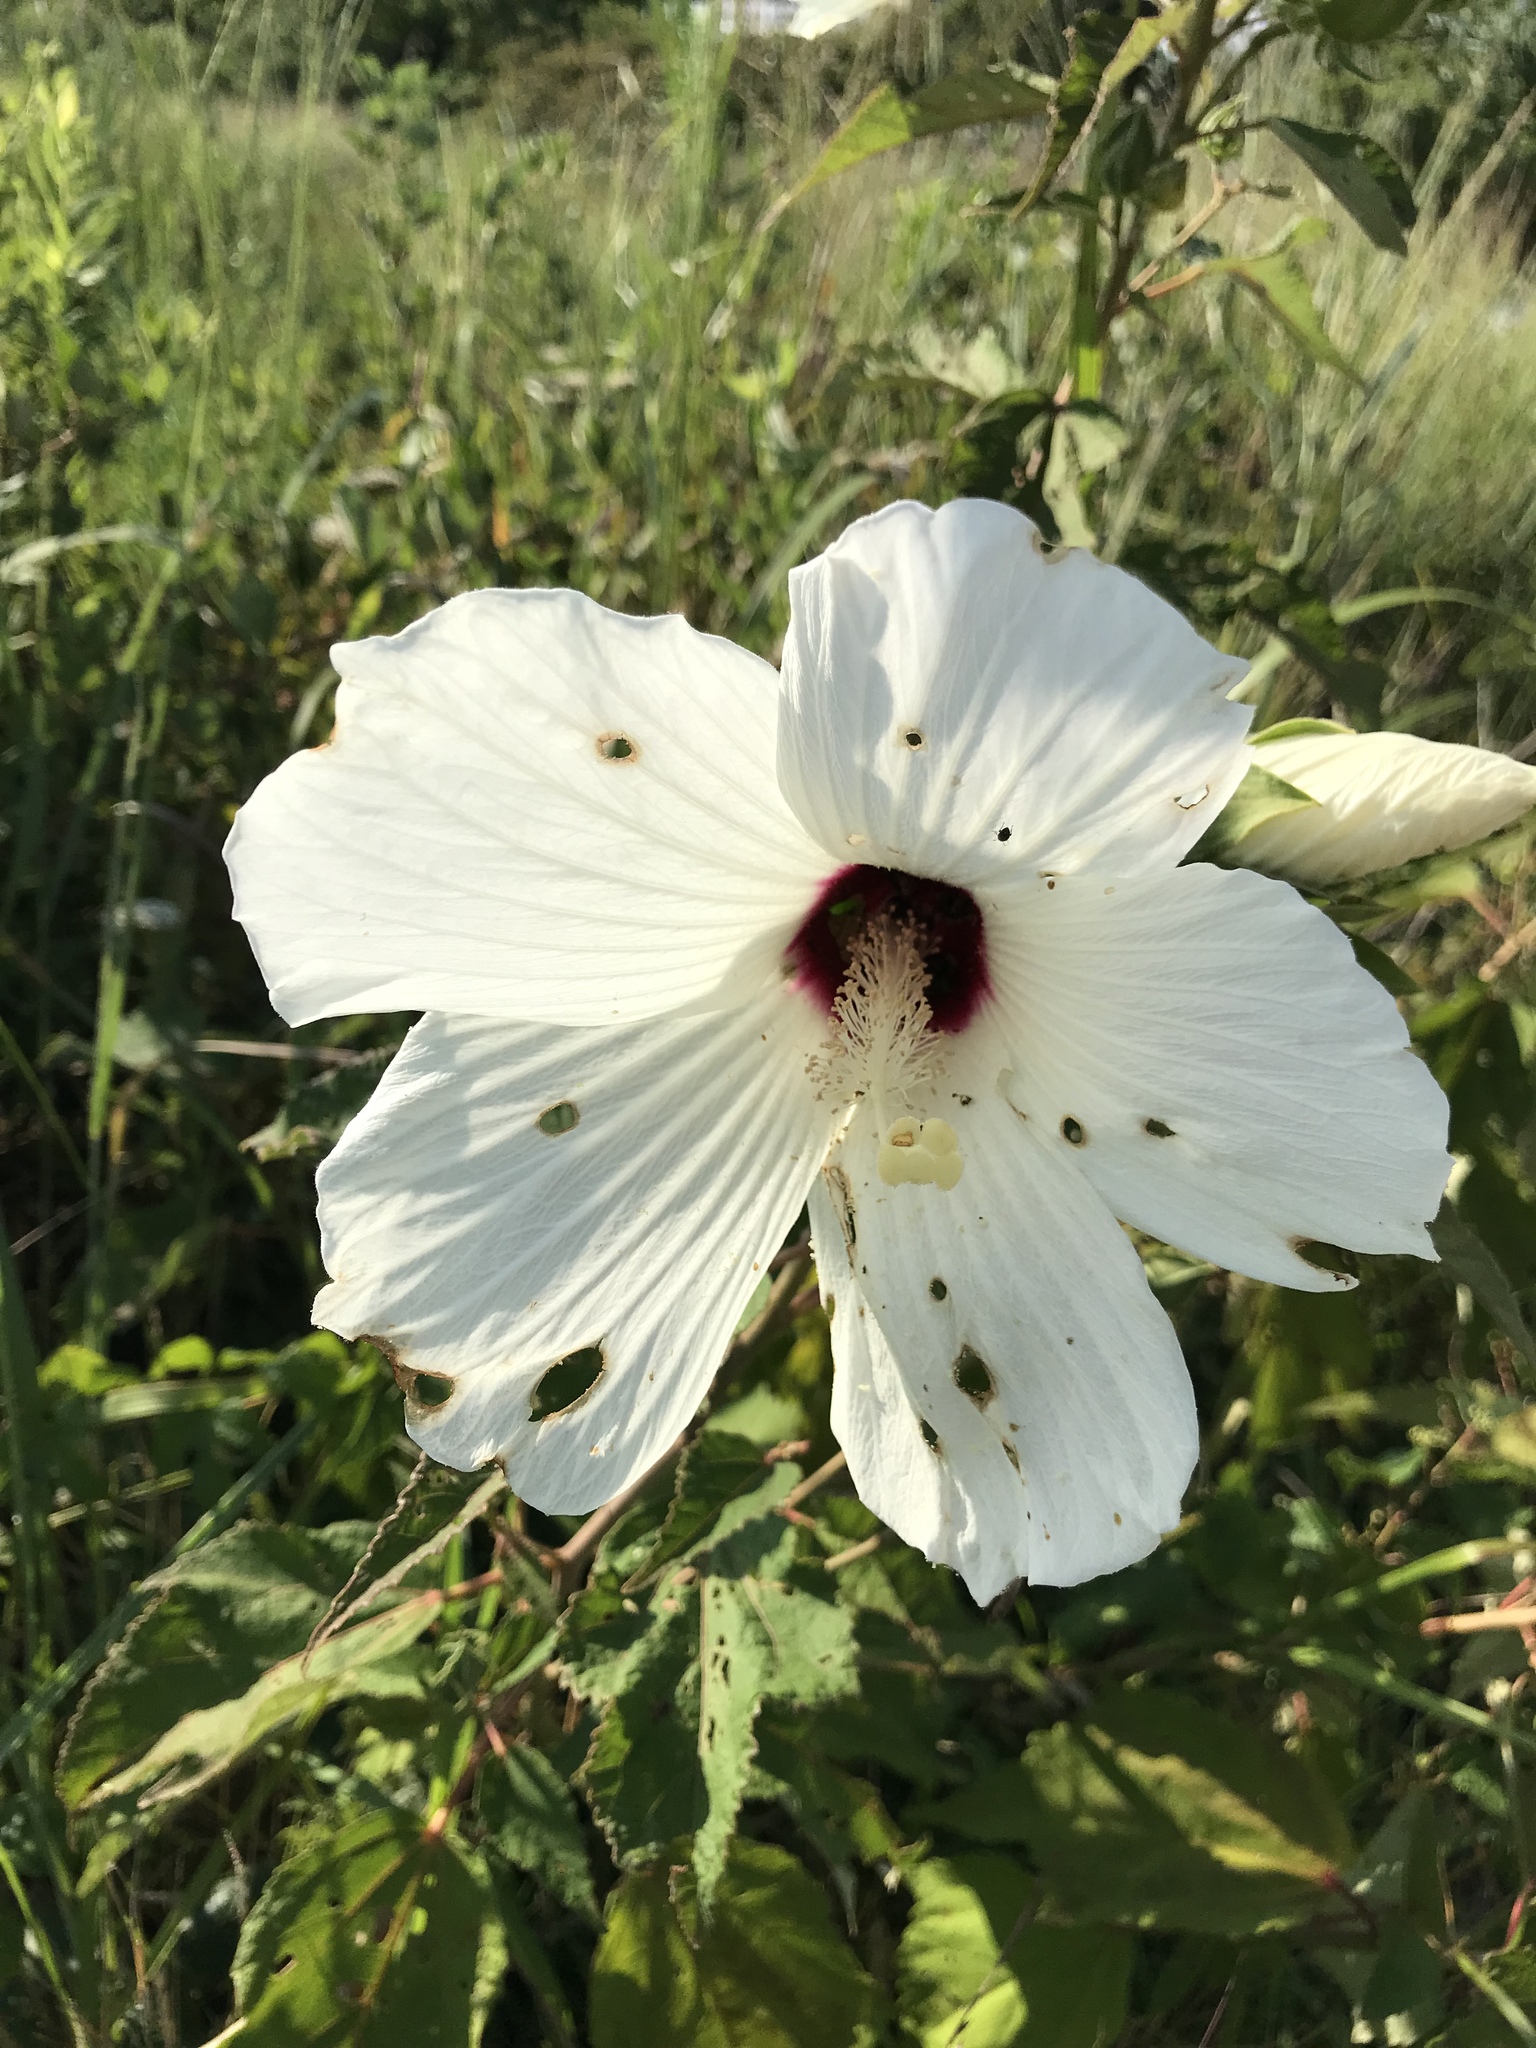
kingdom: Plantae
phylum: Tracheophyta
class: Magnoliopsida
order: Malvales
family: Malvaceae
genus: Hibiscus
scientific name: Hibiscus moscheutos
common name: Common rose-mallow
